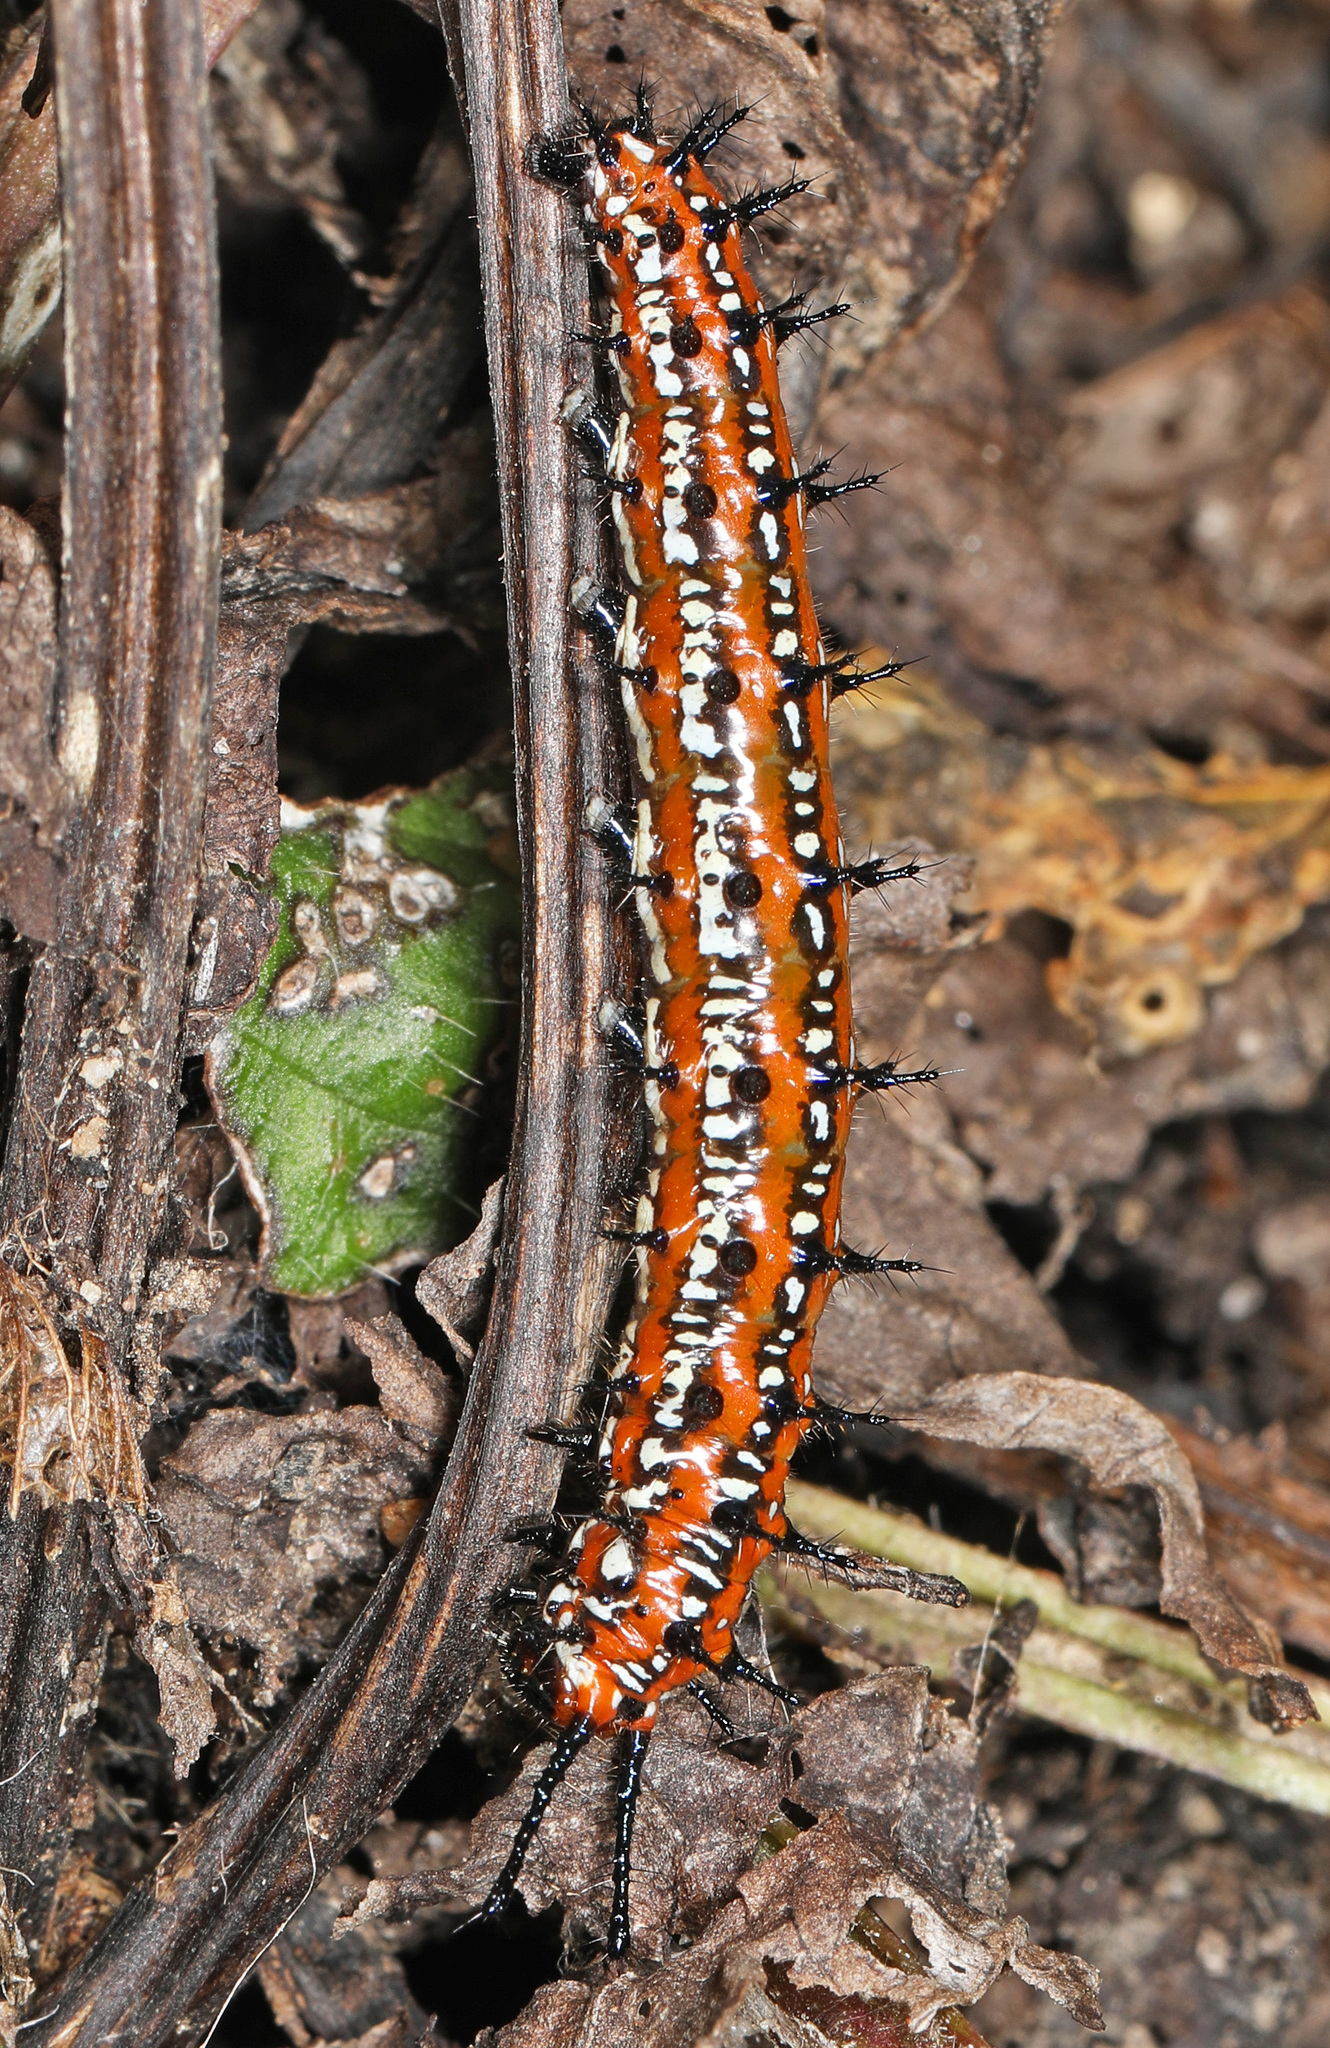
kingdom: Animalia
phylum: Arthropoda
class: Insecta
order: Lepidoptera
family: Nymphalidae
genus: Euptoieta
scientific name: Euptoieta claudia
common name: Variegated fritillary
